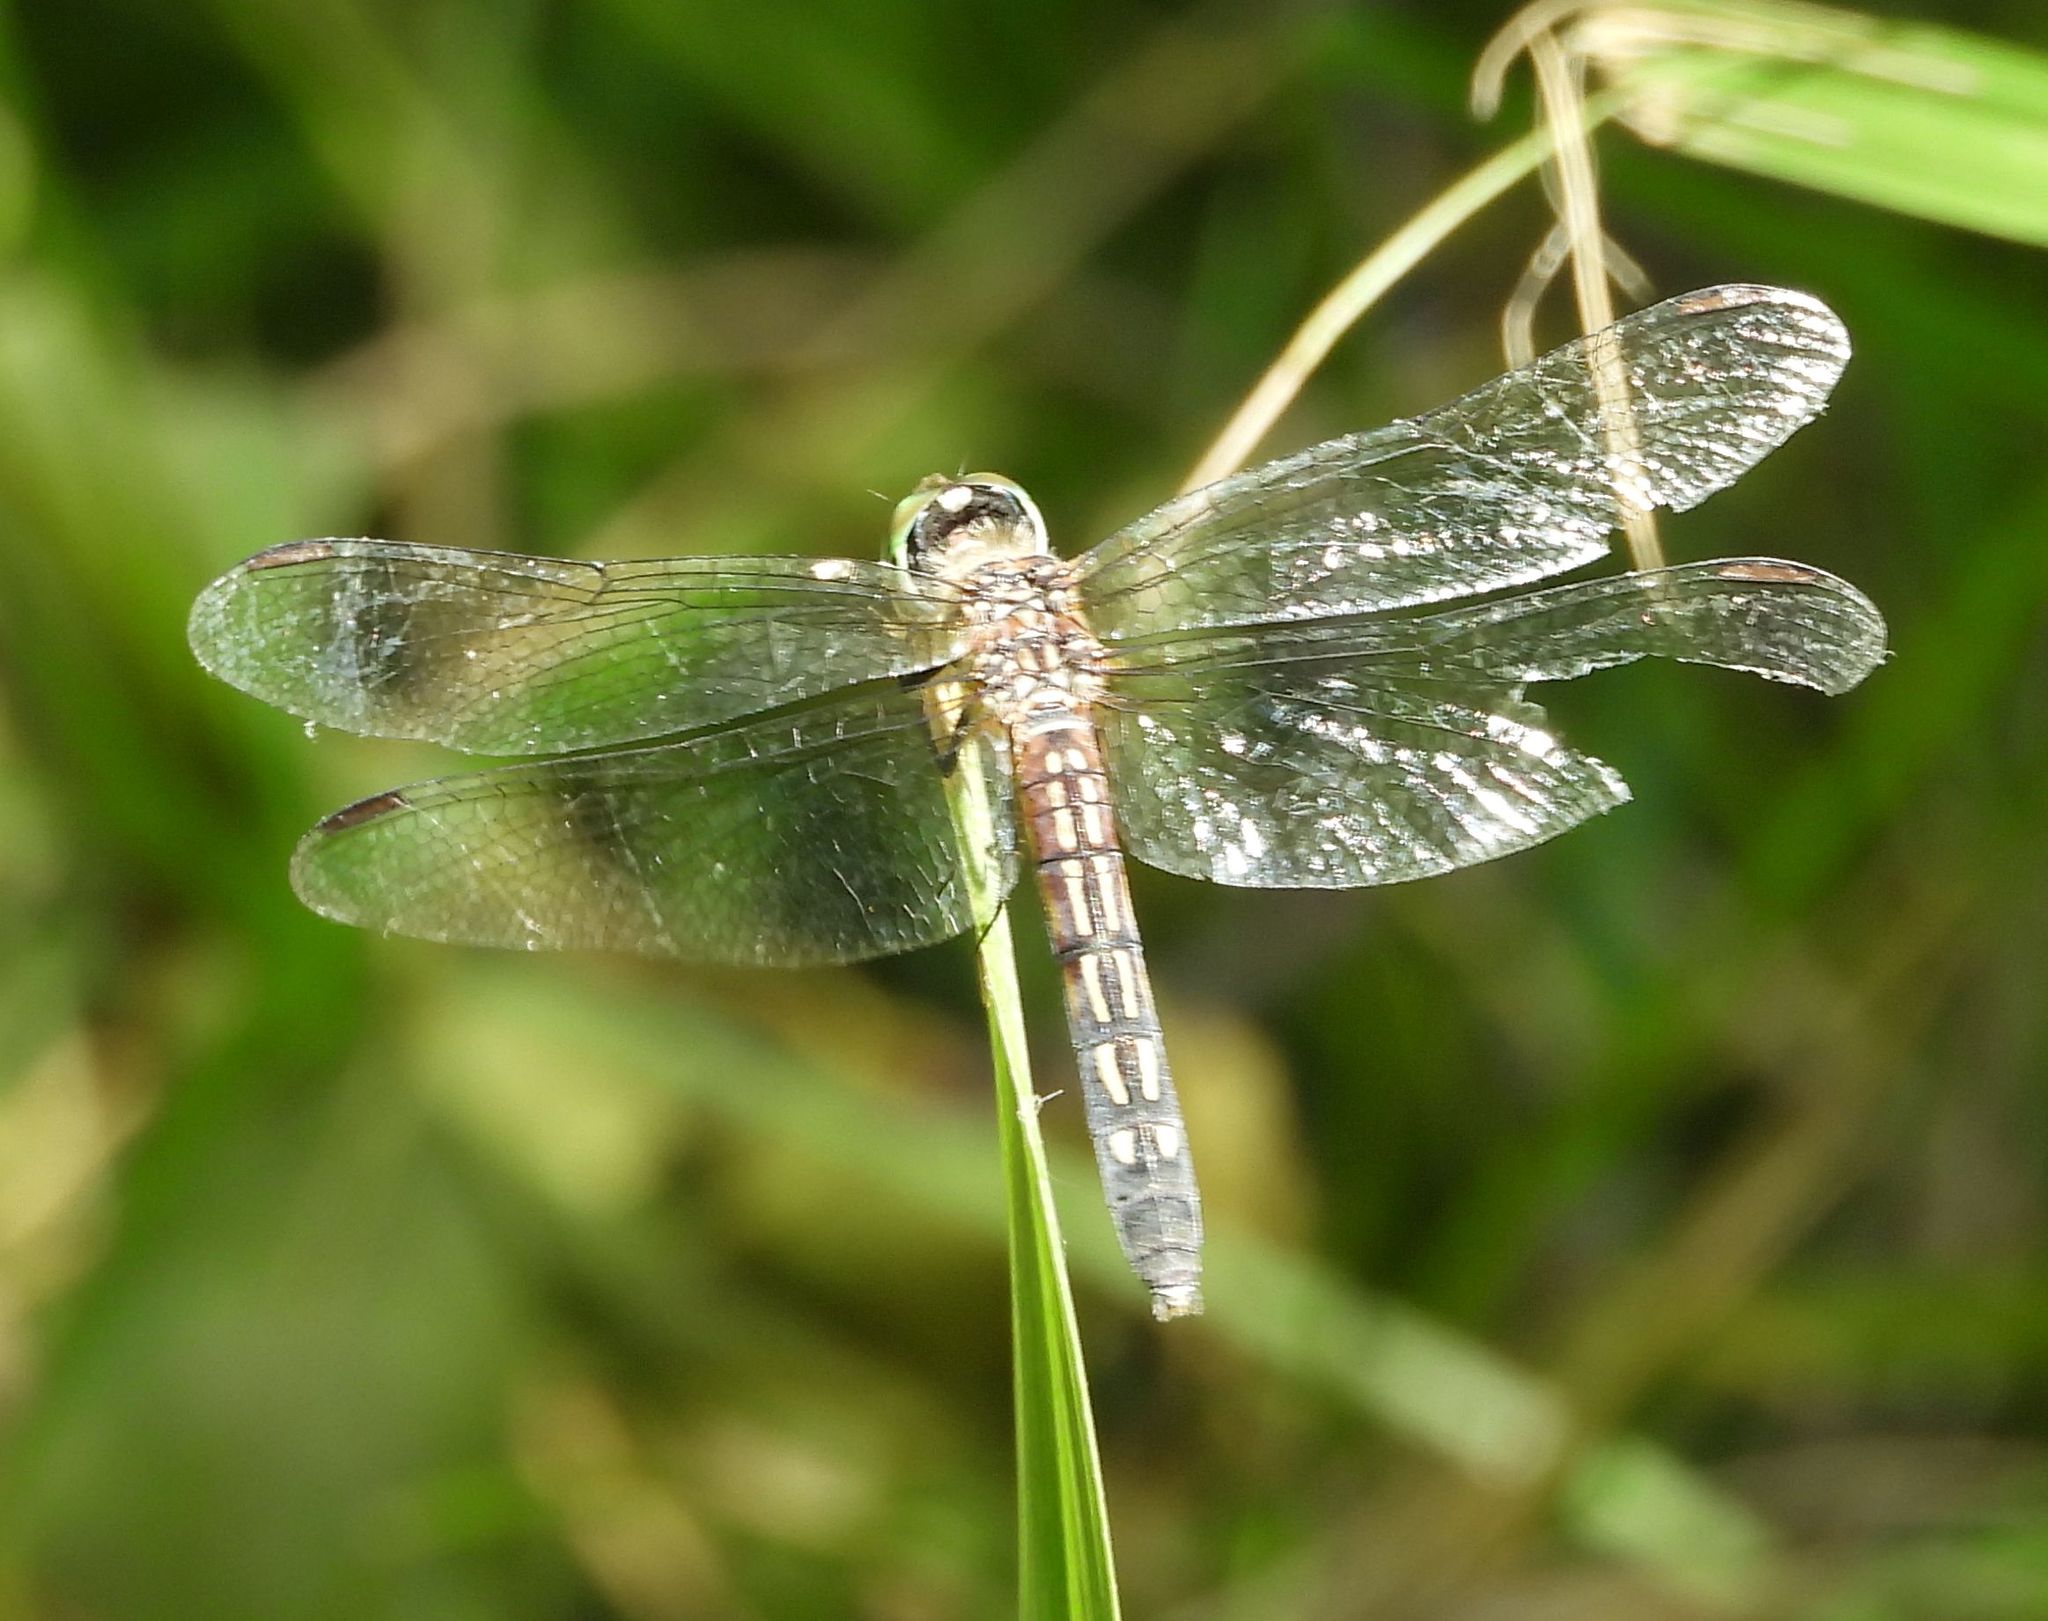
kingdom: Animalia
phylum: Arthropoda
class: Insecta
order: Odonata
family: Libellulidae
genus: Pachydiplax
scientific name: Pachydiplax longipennis
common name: Blue dasher
